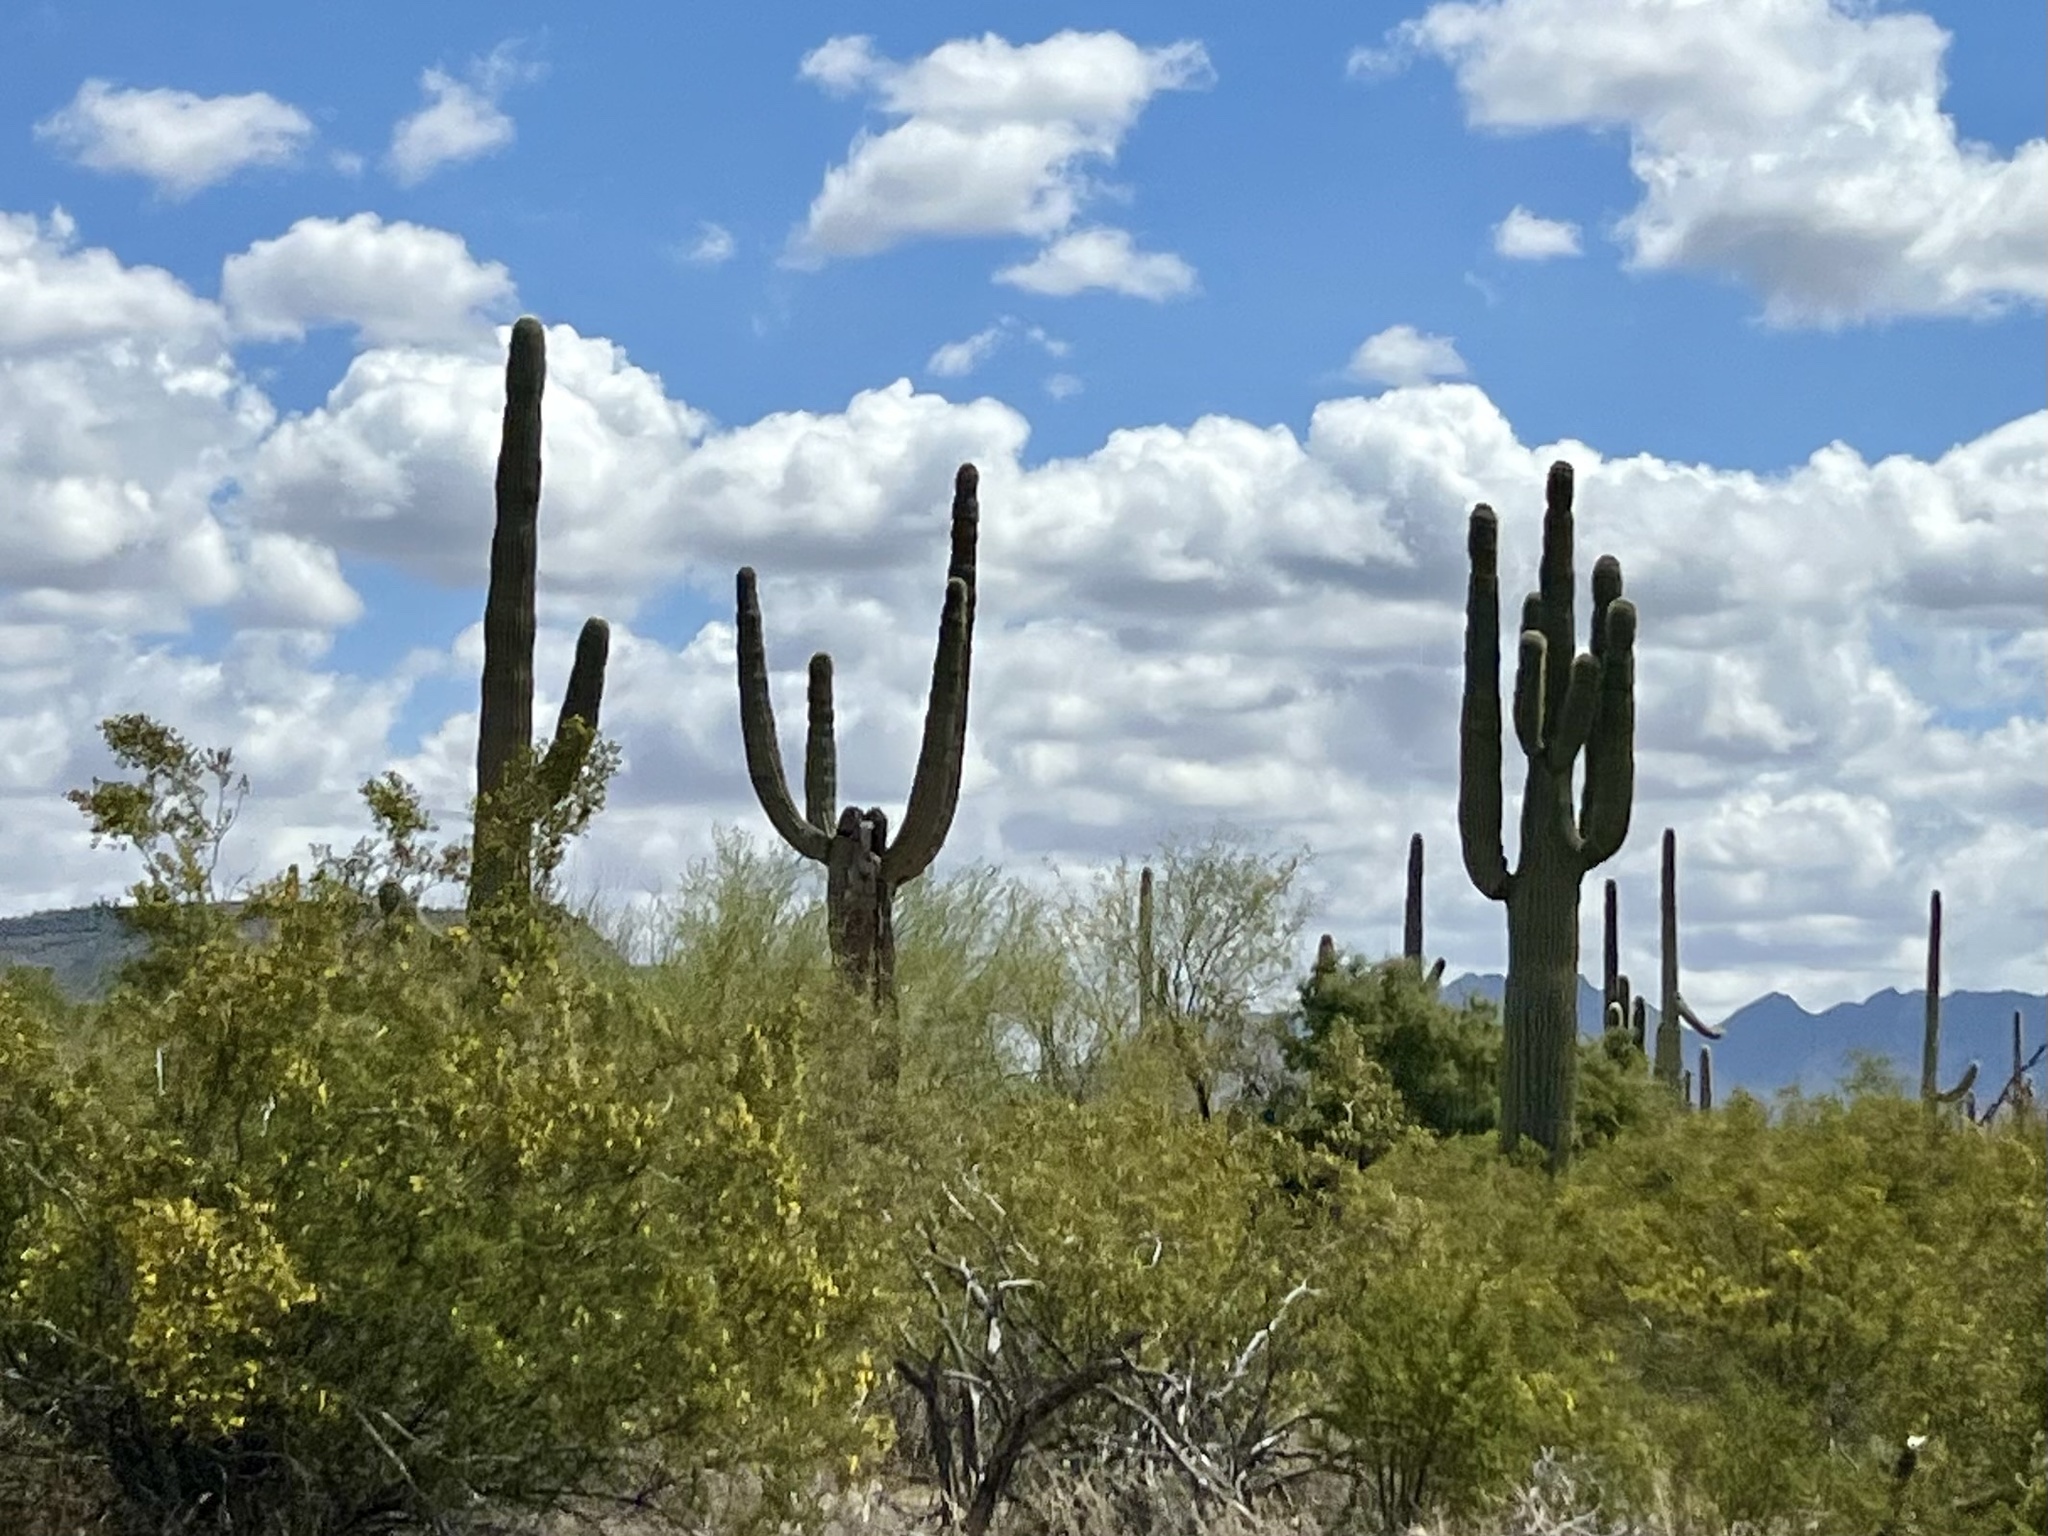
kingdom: Plantae
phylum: Tracheophyta
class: Magnoliopsida
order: Caryophyllales
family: Cactaceae
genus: Carnegiea
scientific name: Carnegiea gigantea
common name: Saguaro
